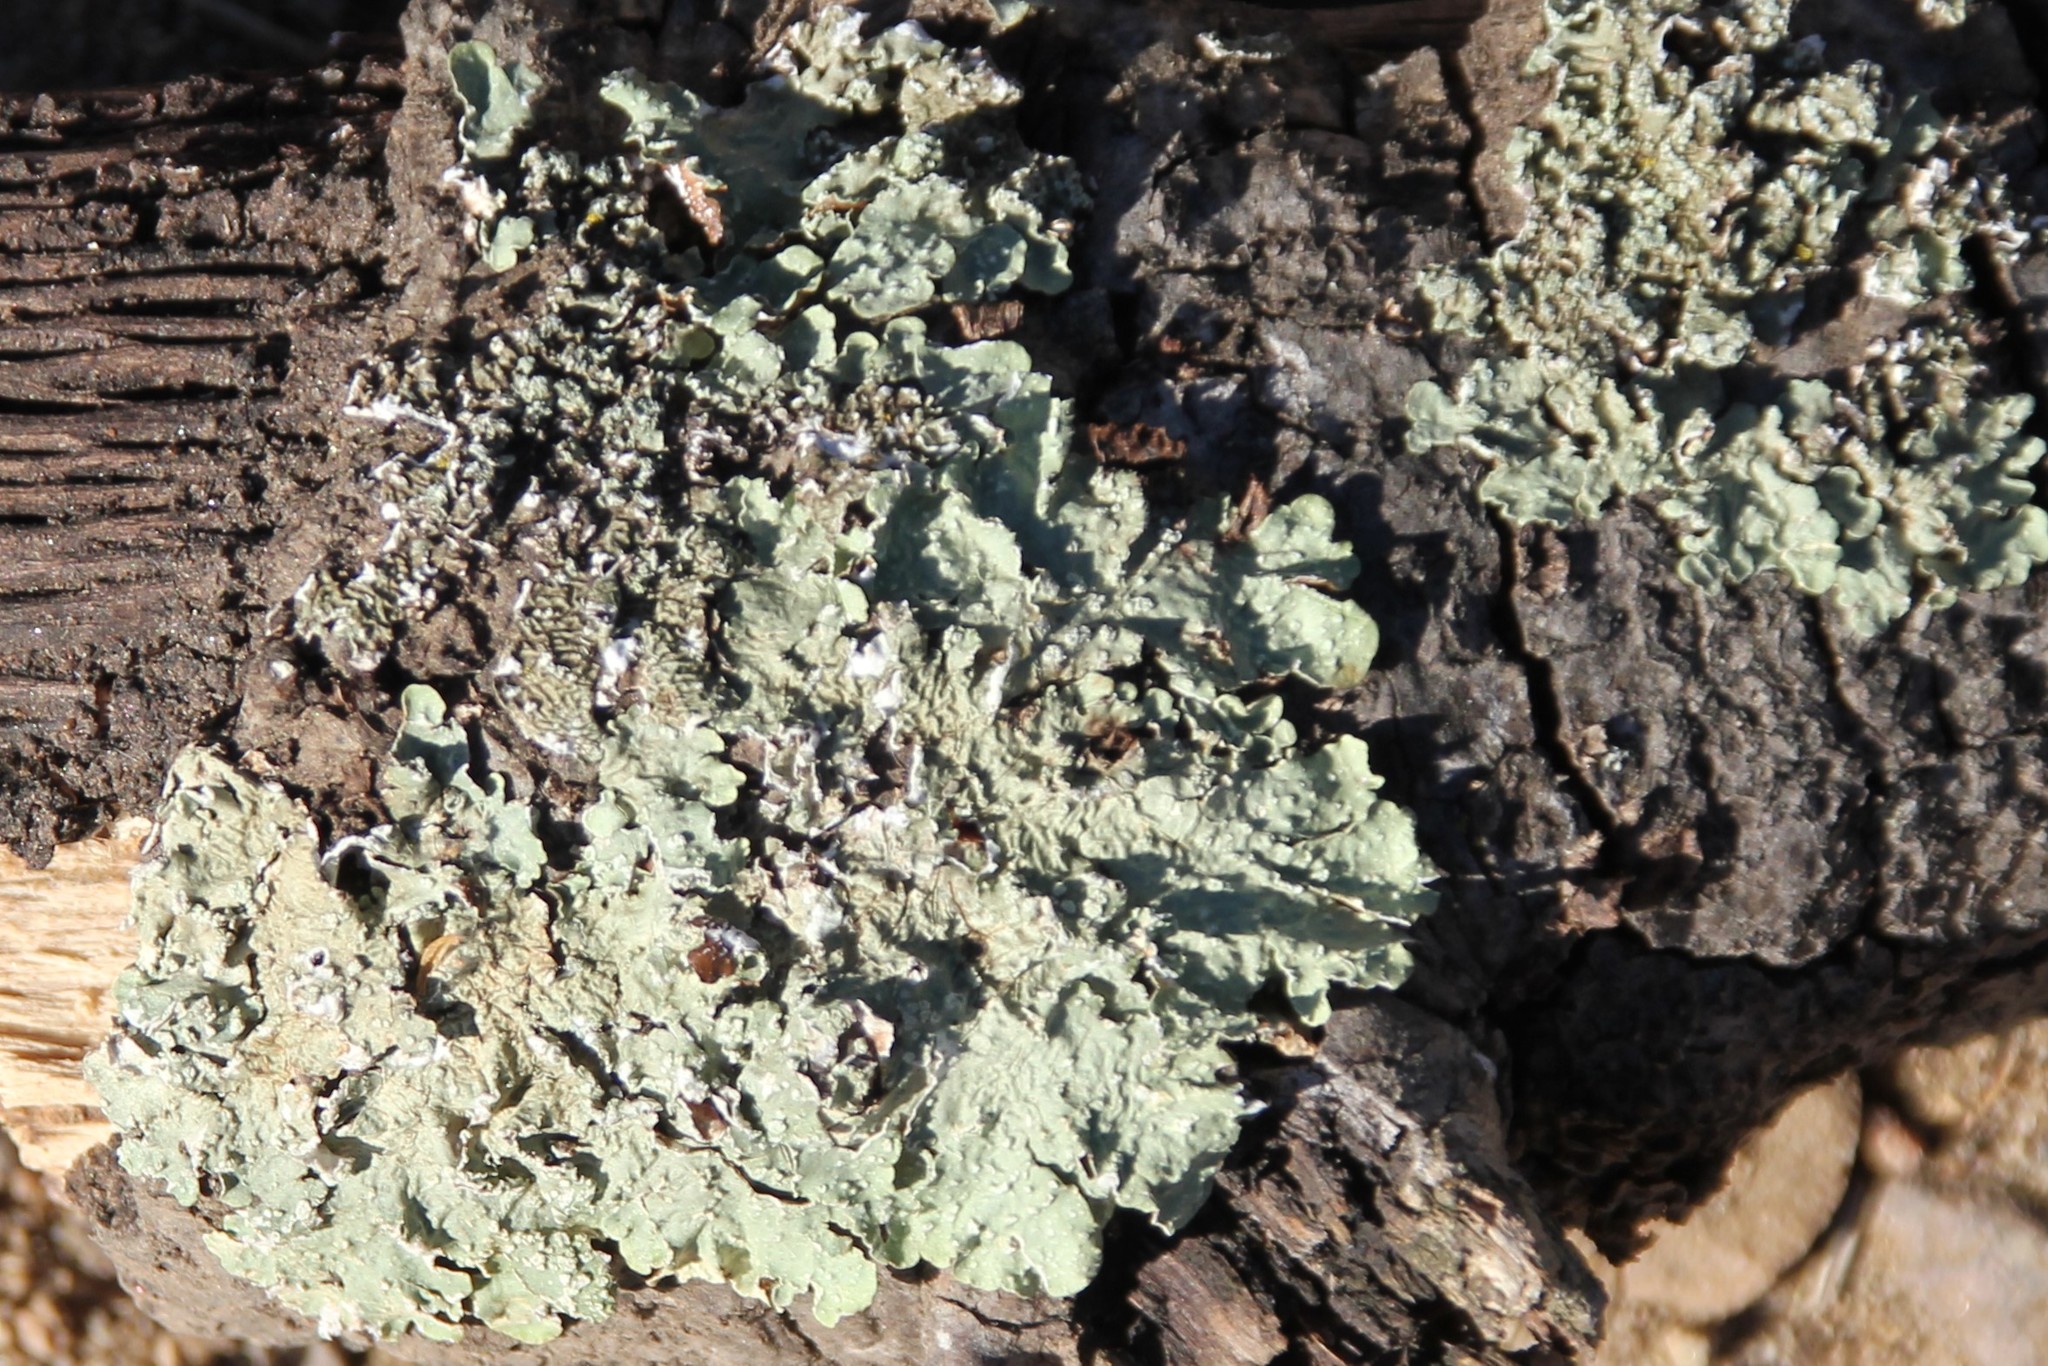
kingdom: Fungi
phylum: Ascomycota
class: Lecanoromycetes
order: Lecanorales
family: Parmeliaceae
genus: Flavopunctelia
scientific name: Flavopunctelia flaventior
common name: Speckled greenshield
